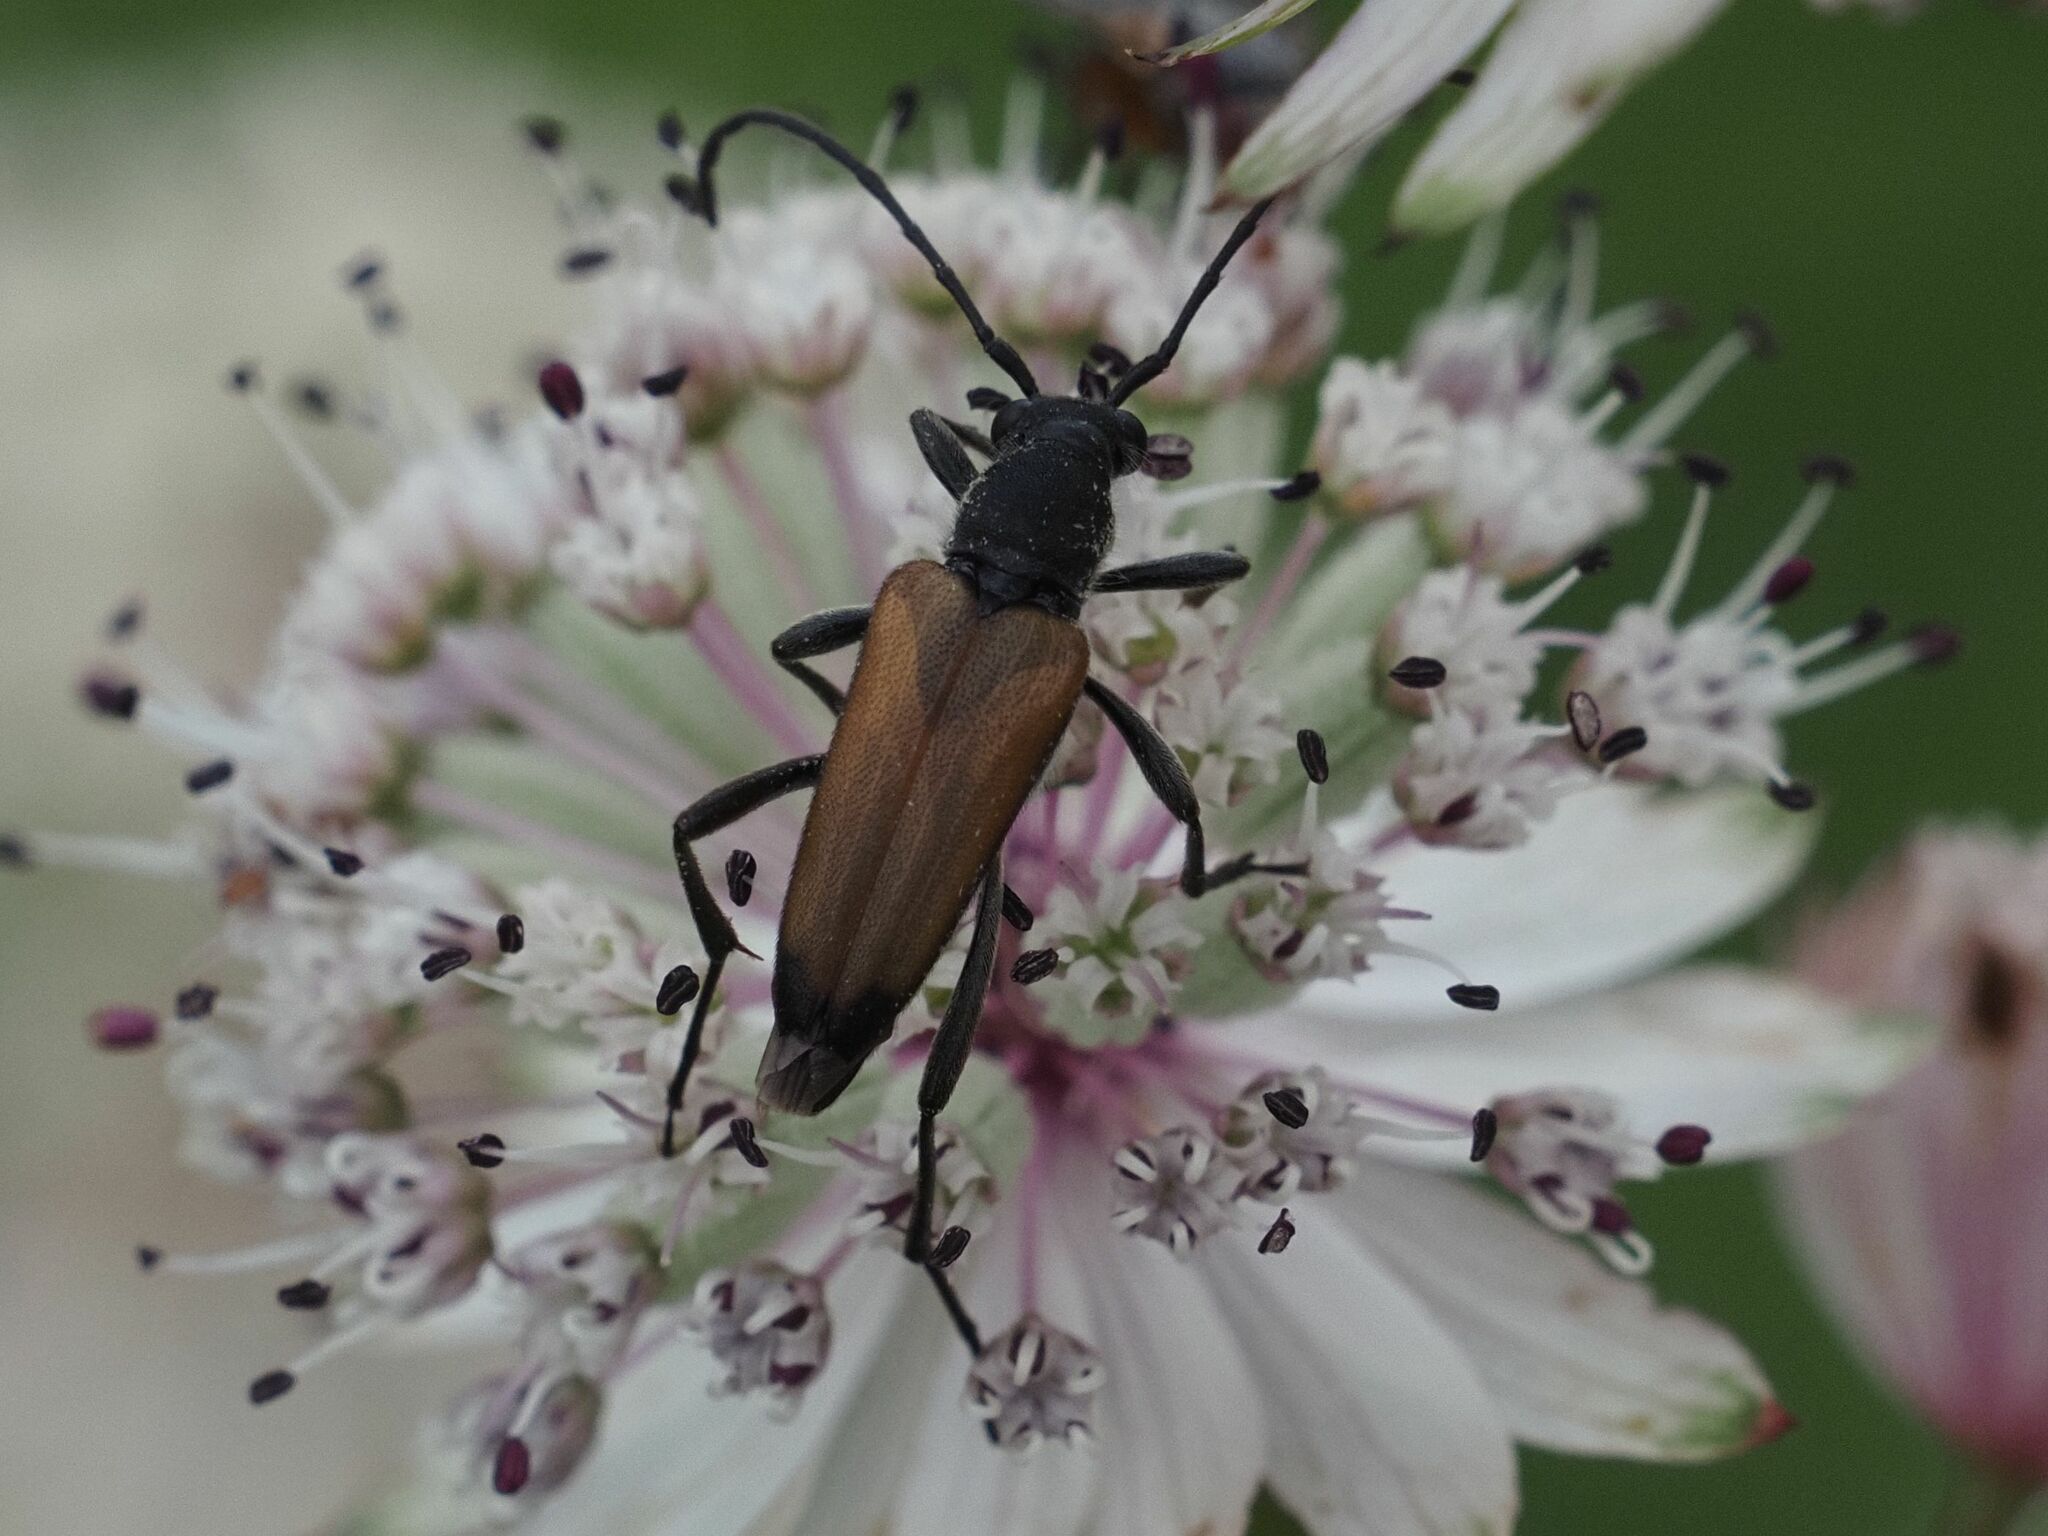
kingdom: Animalia
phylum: Arthropoda
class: Insecta
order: Coleoptera
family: Cerambycidae
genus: Anastrangalia
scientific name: Anastrangalia sanguinolenta
